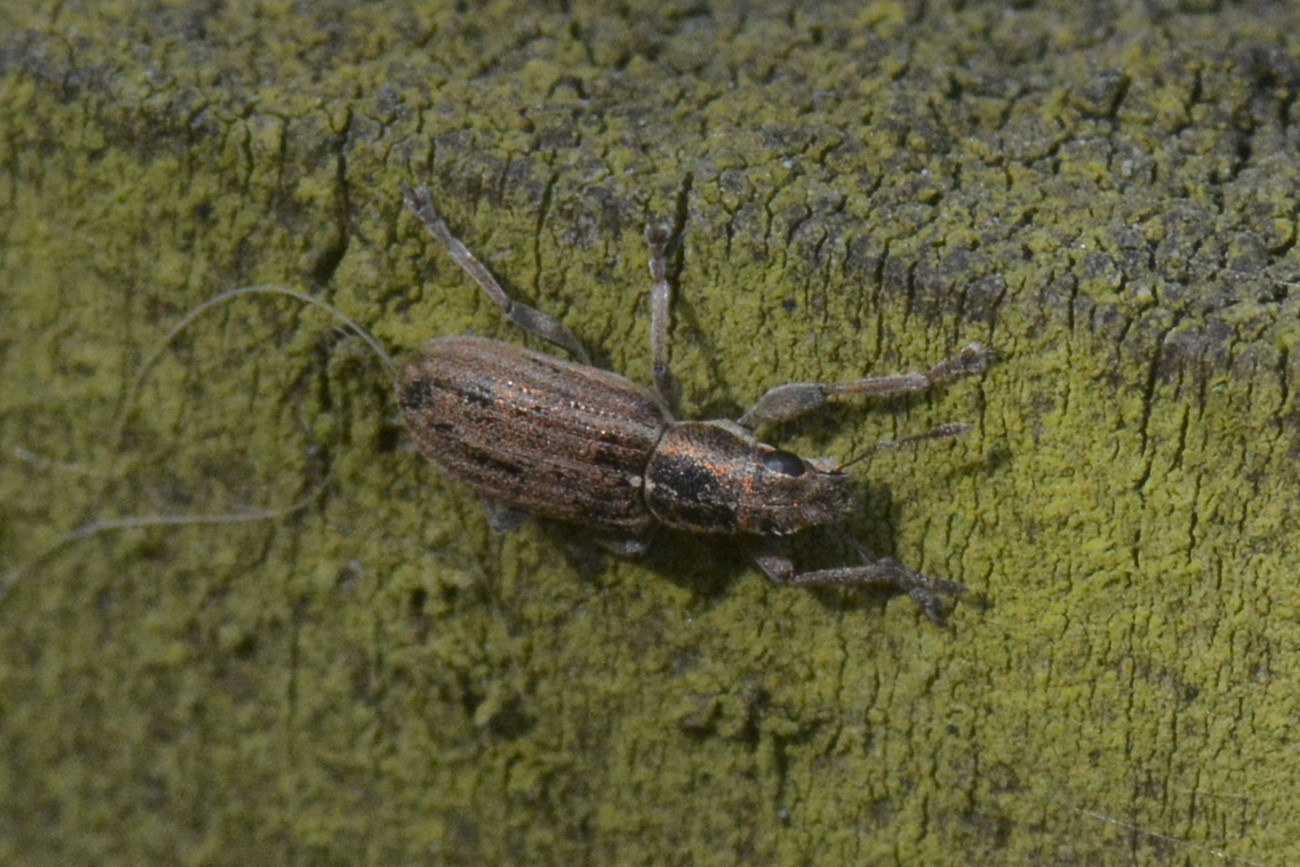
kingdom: Animalia
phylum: Arthropoda
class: Insecta
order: Coleoptera
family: Curculionidae
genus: Sitona
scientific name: Sitona lineatus
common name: Weevil
